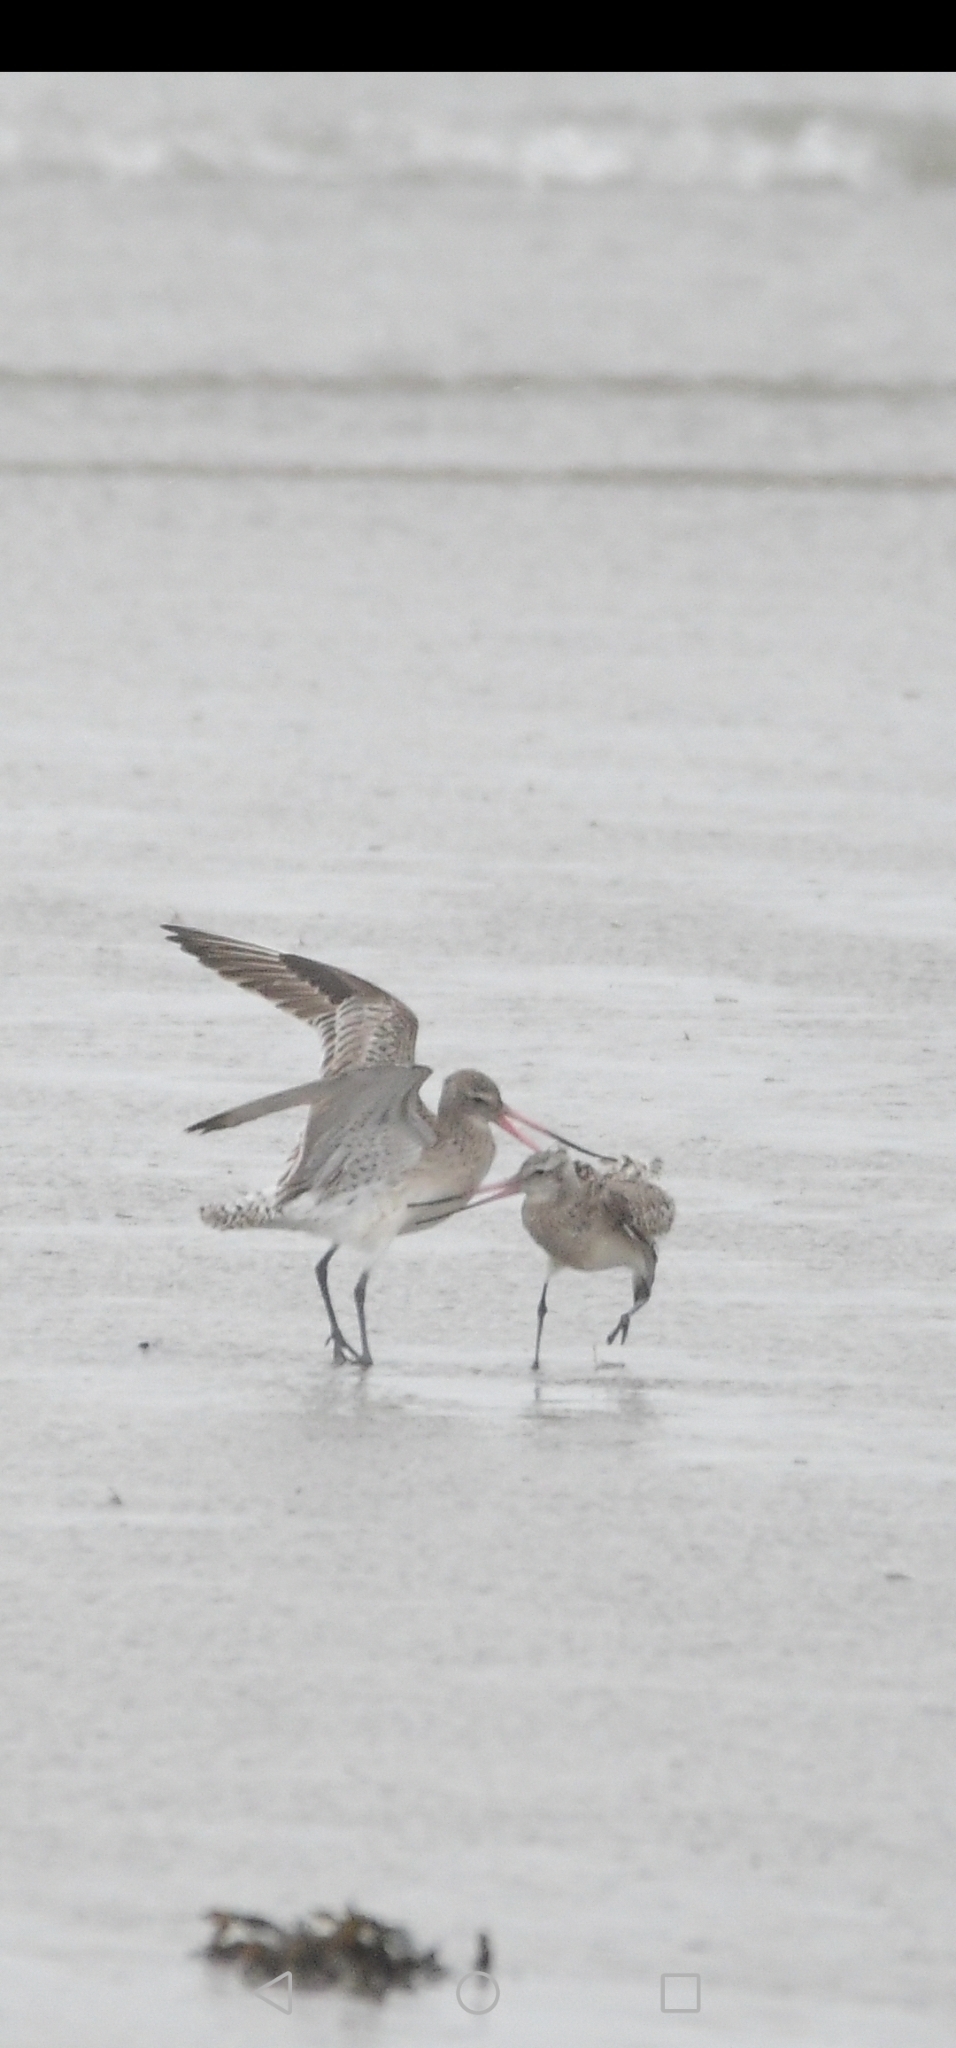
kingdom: Animalia
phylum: Chordata
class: Aves
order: Charadriiformes
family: Scolopacidae
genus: Limosa
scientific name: Limosa lapponica
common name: Bar-tailed godwit
